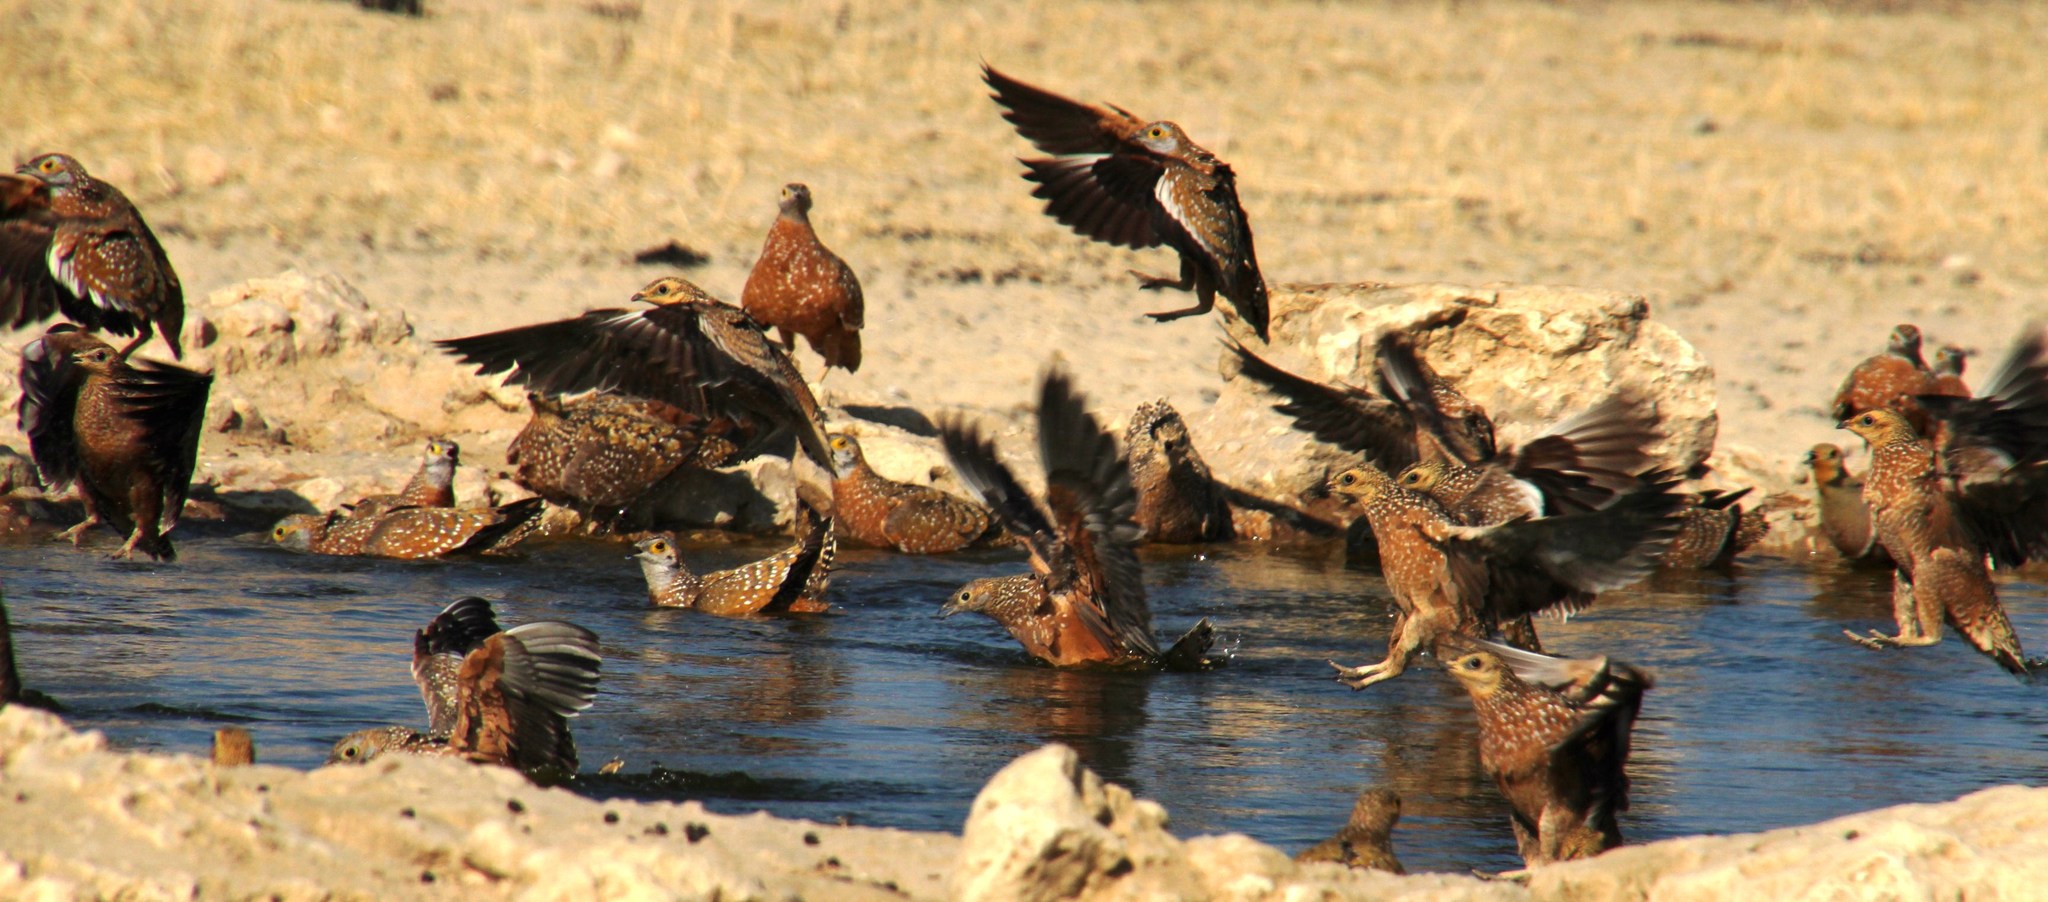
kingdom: Animalia
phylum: Chordata
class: Aves
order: Pteroclidiformes
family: Pteroclididae
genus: Pterocles
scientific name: Pterocles namaqua
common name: Namaqua sandgrouse
